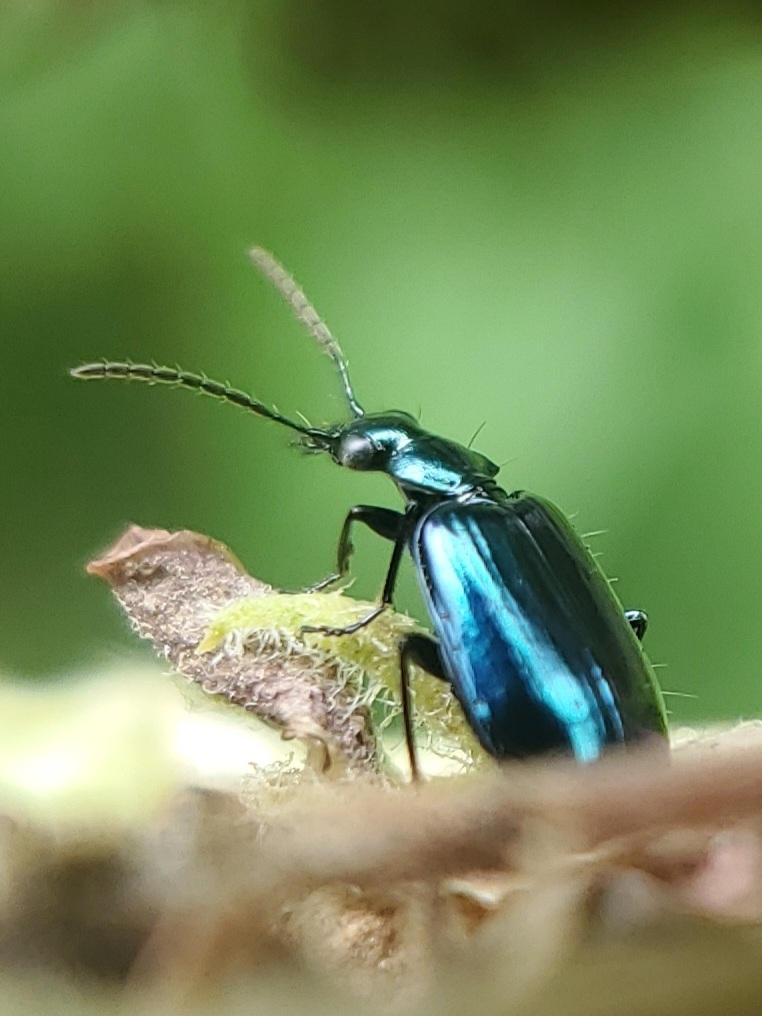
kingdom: Animalia
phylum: Arthropoda
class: Insecta
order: Coleoptera
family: Carabidae
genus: Lebia
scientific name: Lebia viridis
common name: Flower lebia beetle
